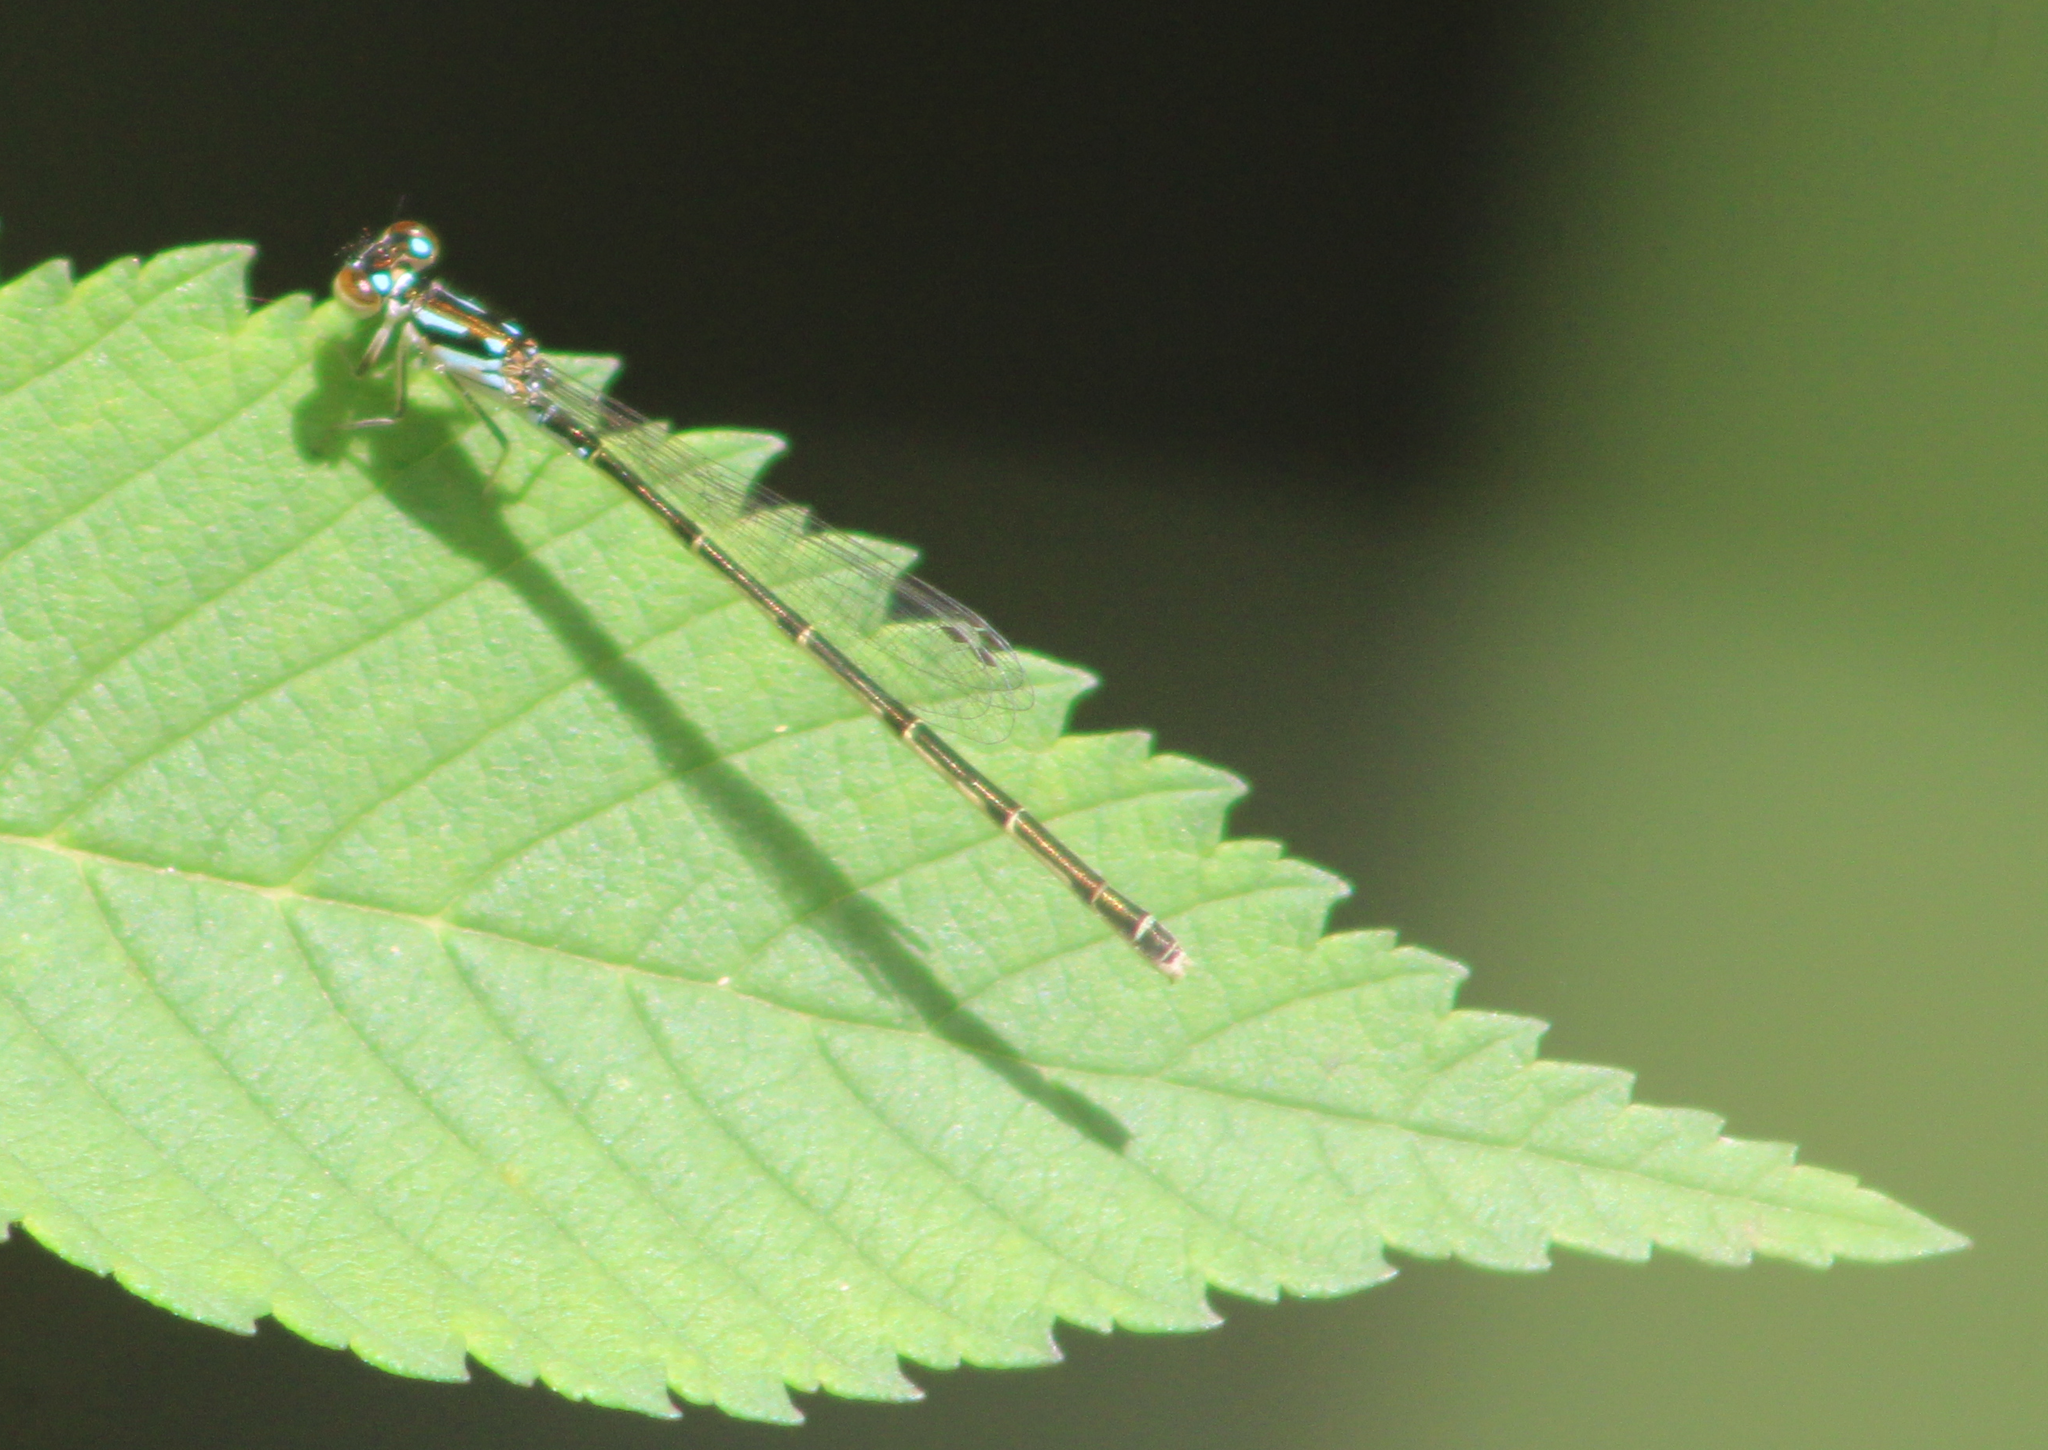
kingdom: Animalia
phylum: Arthropoda
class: Insecta
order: Odonata
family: Coenagrionidae
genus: Ischnura
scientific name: Ischnura posita
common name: Fragile forktail
